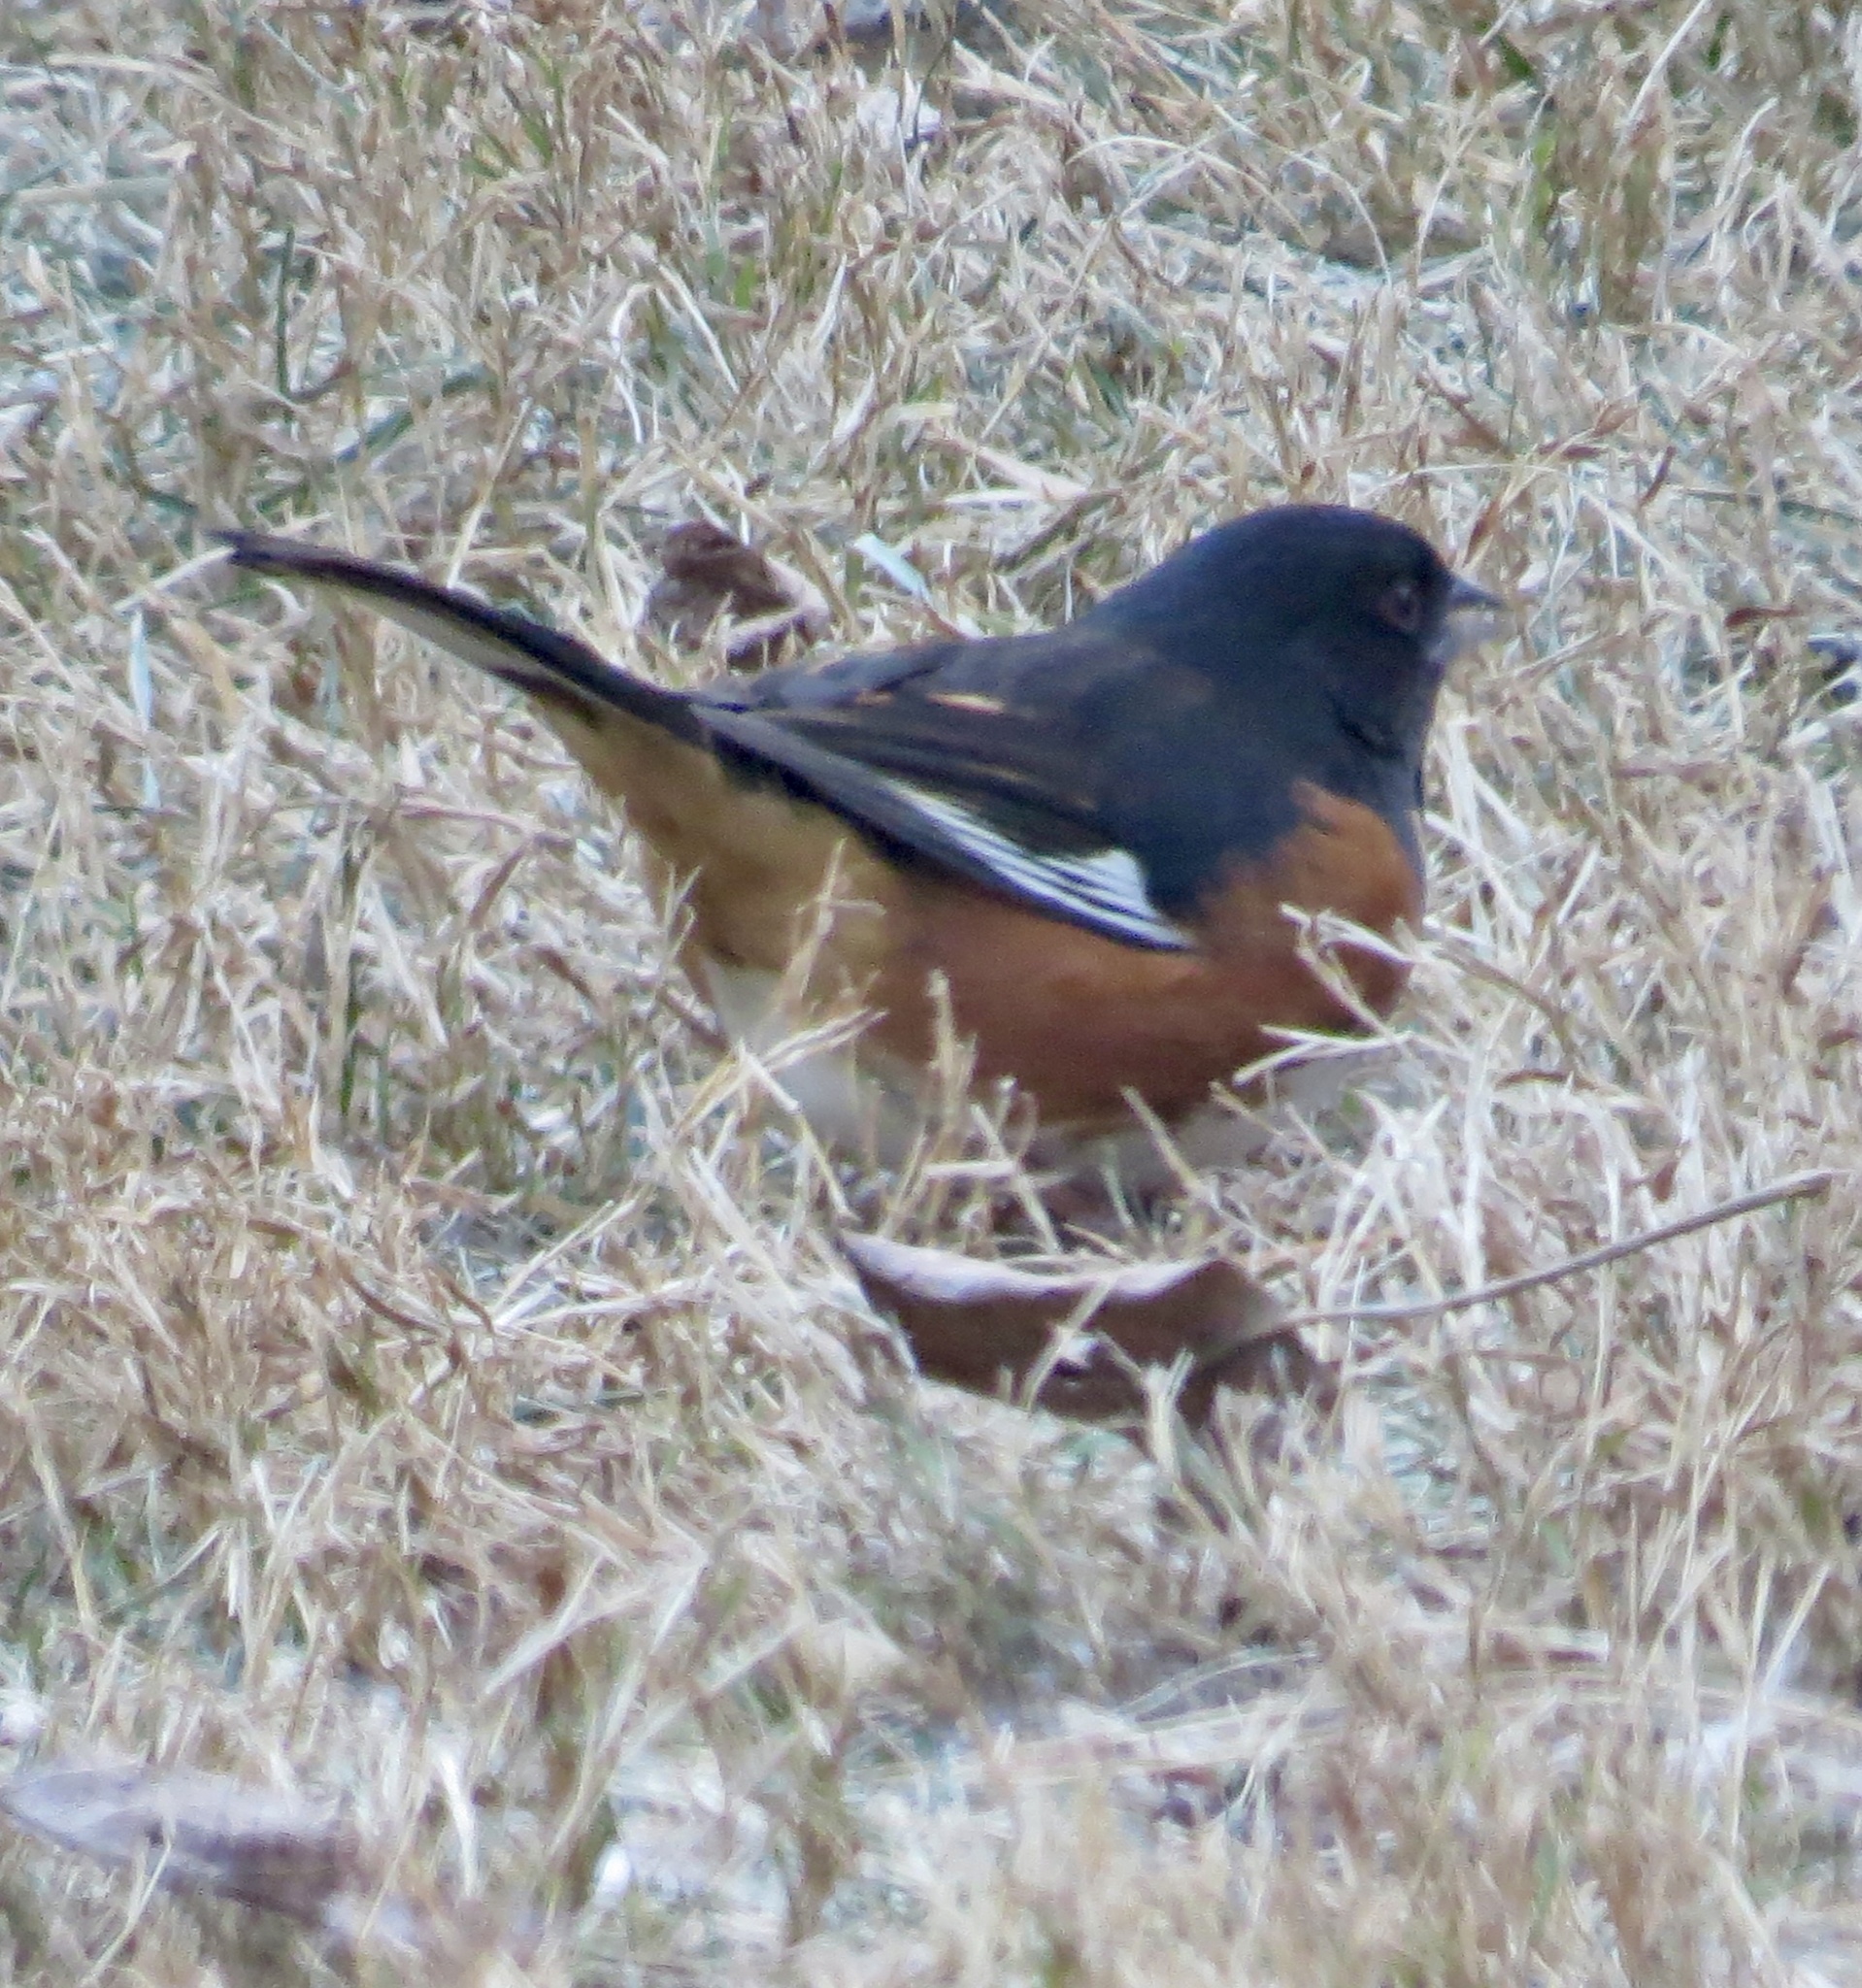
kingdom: Animalia
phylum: Chordata
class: Aves
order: Passeriformes
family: Passerellidae
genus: Pipilo
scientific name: Pipilo erythrophthalmus
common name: Eastern towhee
